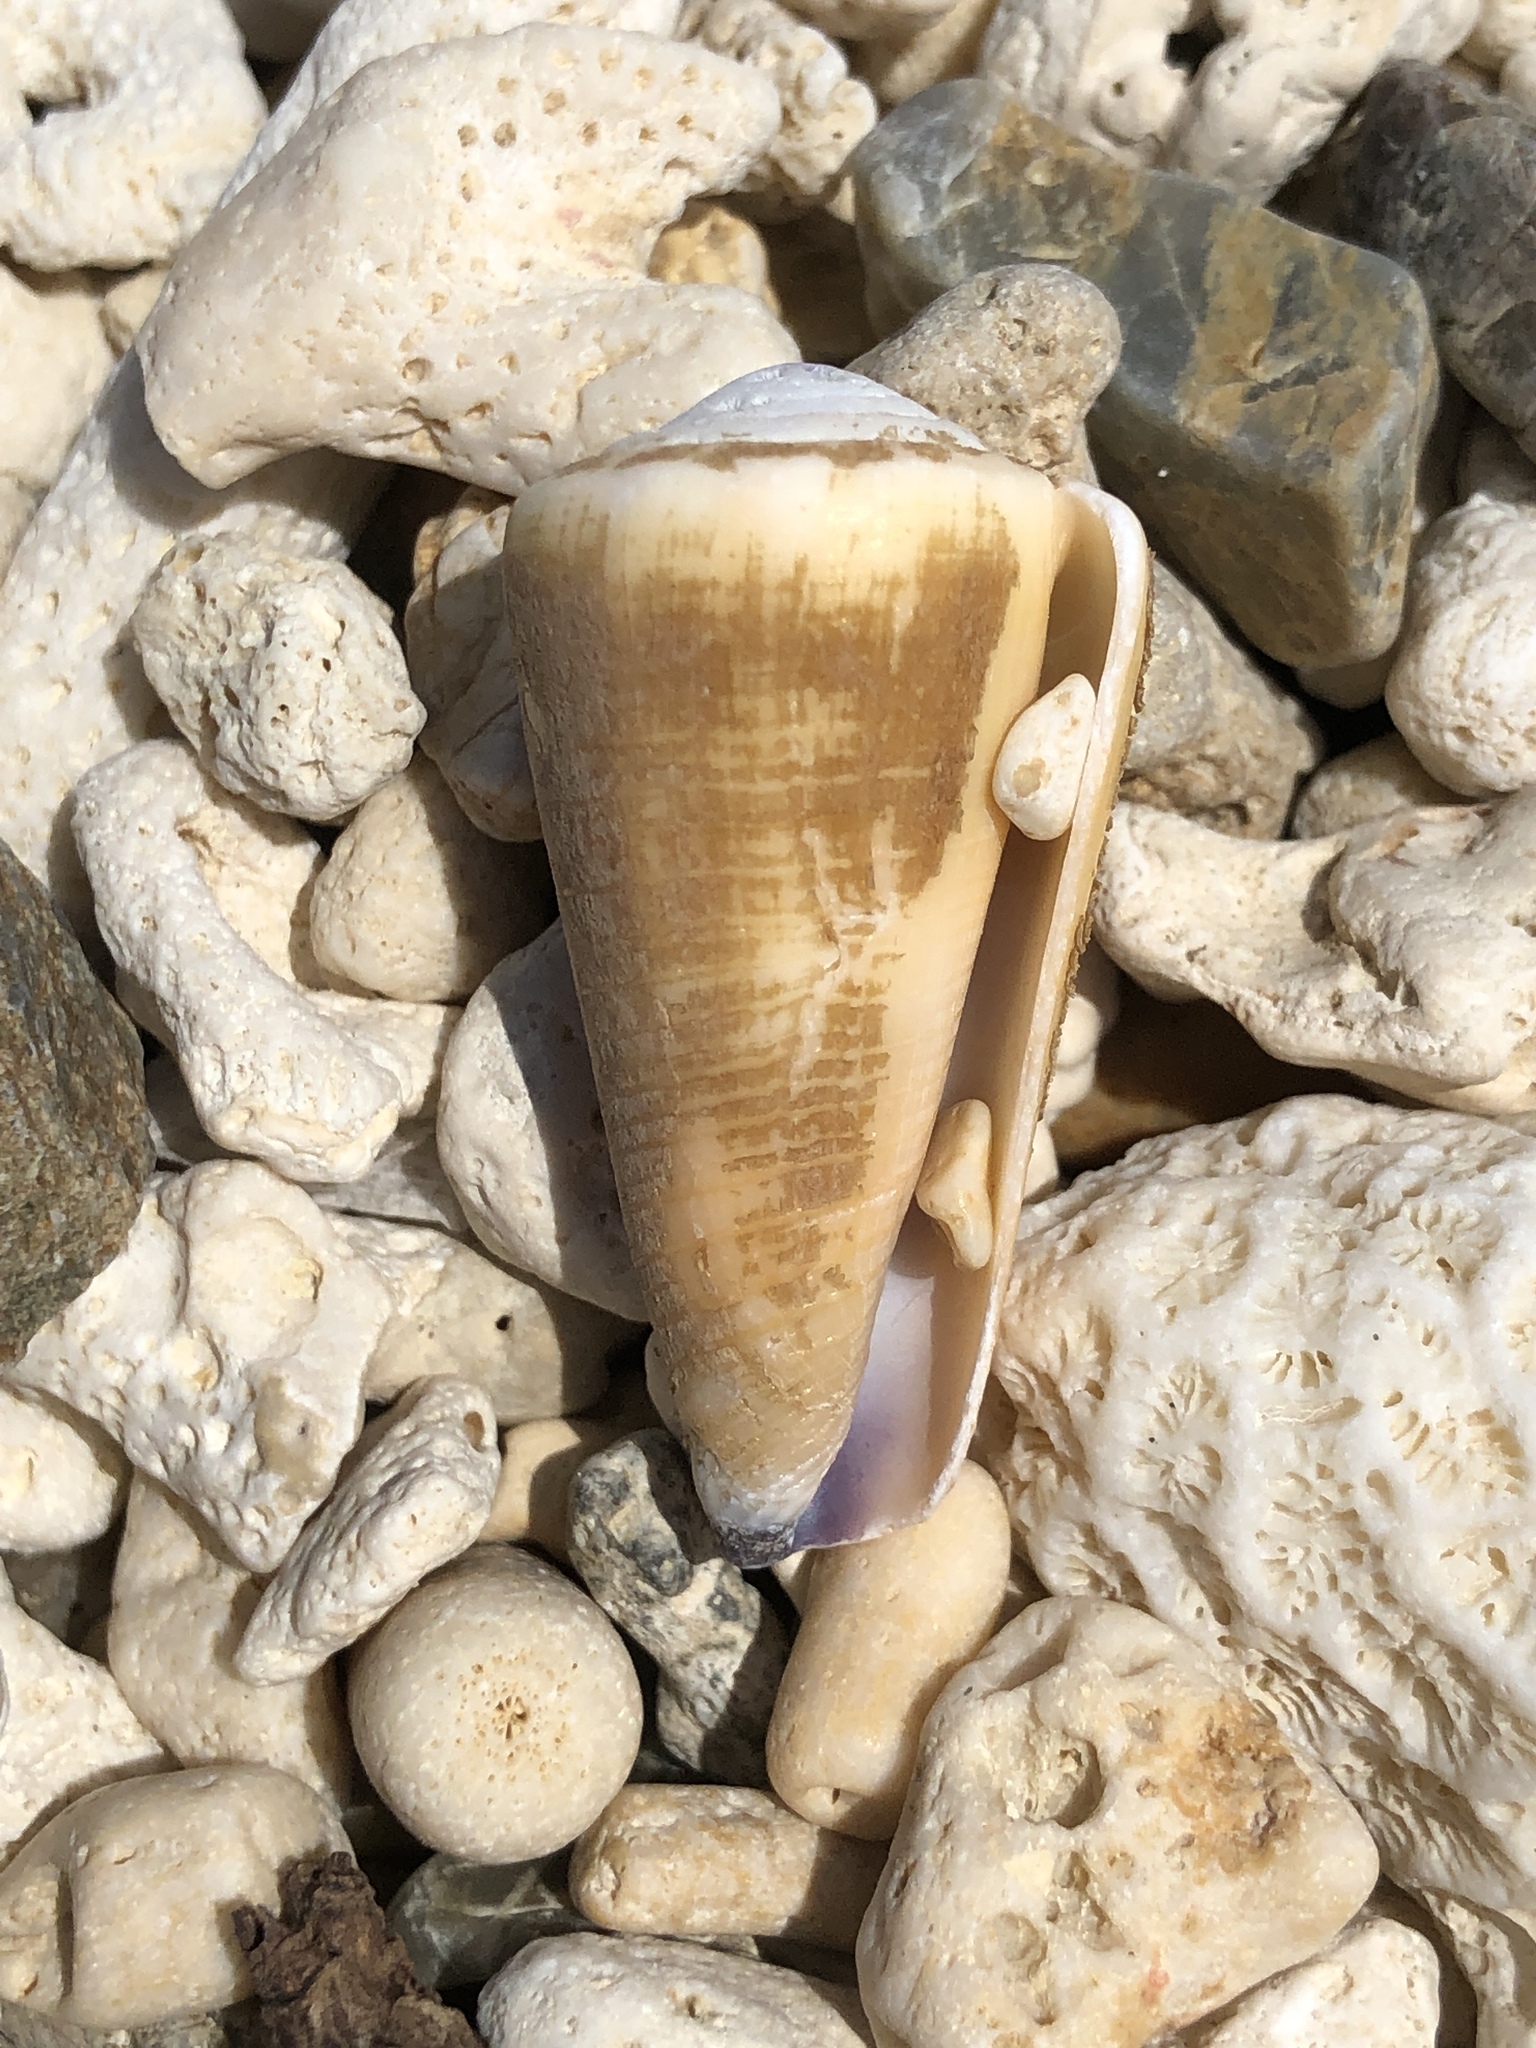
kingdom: Animalia
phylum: Mollusca
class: Gastropoda
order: Neogastropoda
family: Conidae
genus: Conus
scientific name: Conus emaciatus
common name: False virgin cone
